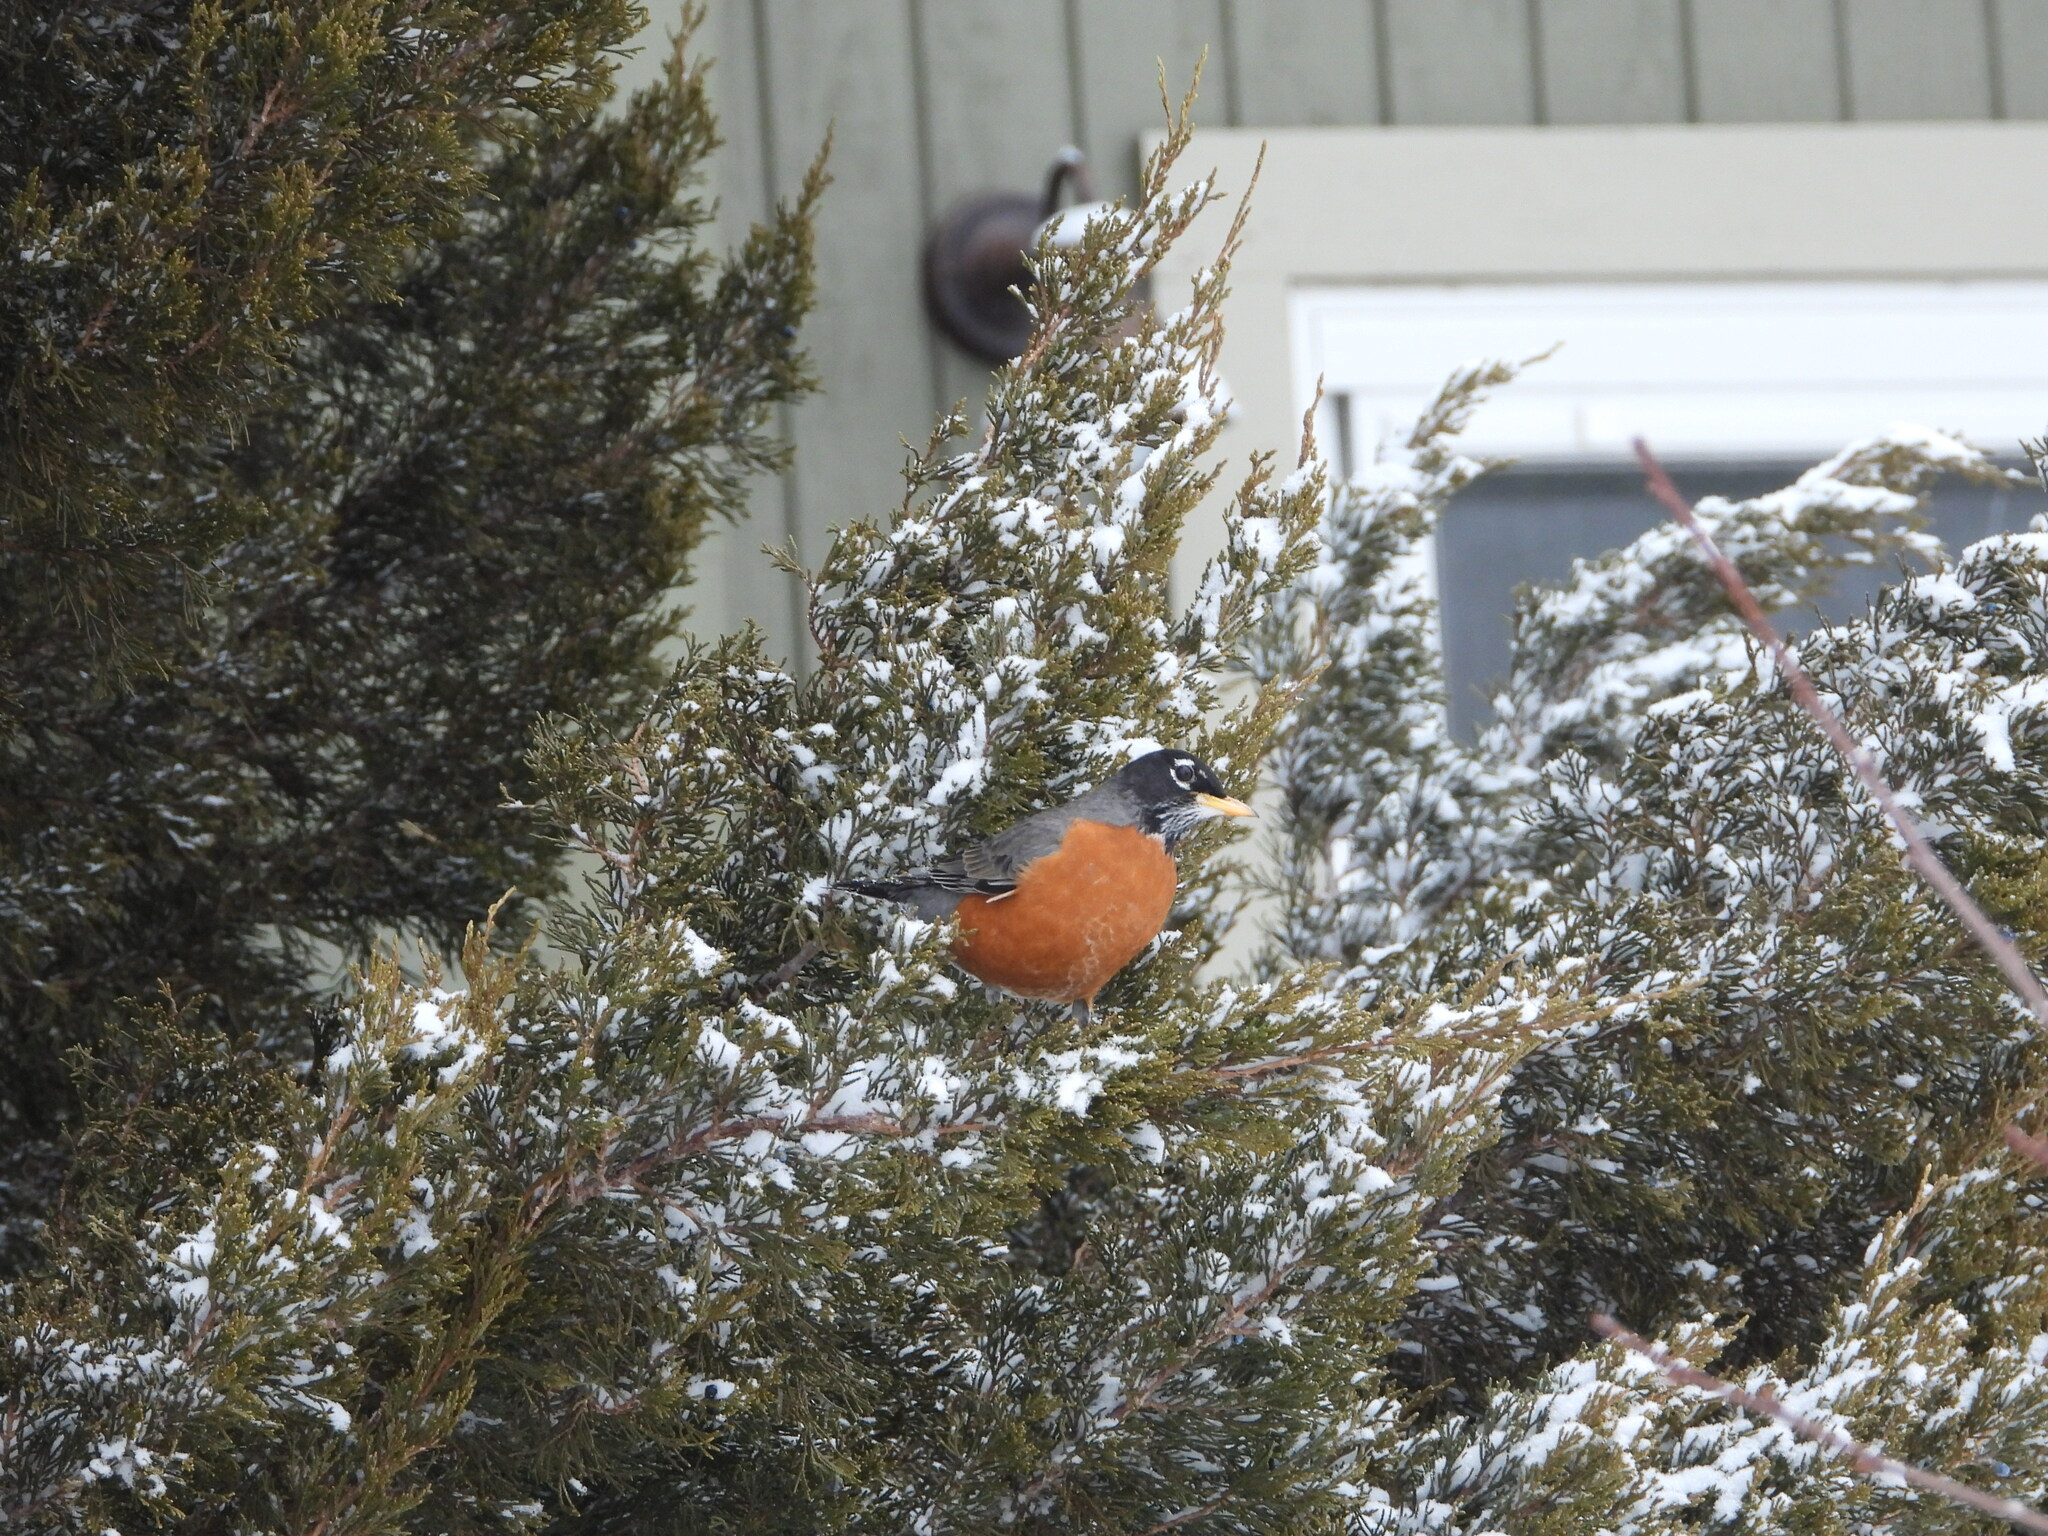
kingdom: Animalia
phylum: Chordata
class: Aves
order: Passeriformes
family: Turdidae
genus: Turdus
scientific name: Turdus migratorius
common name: American robin
